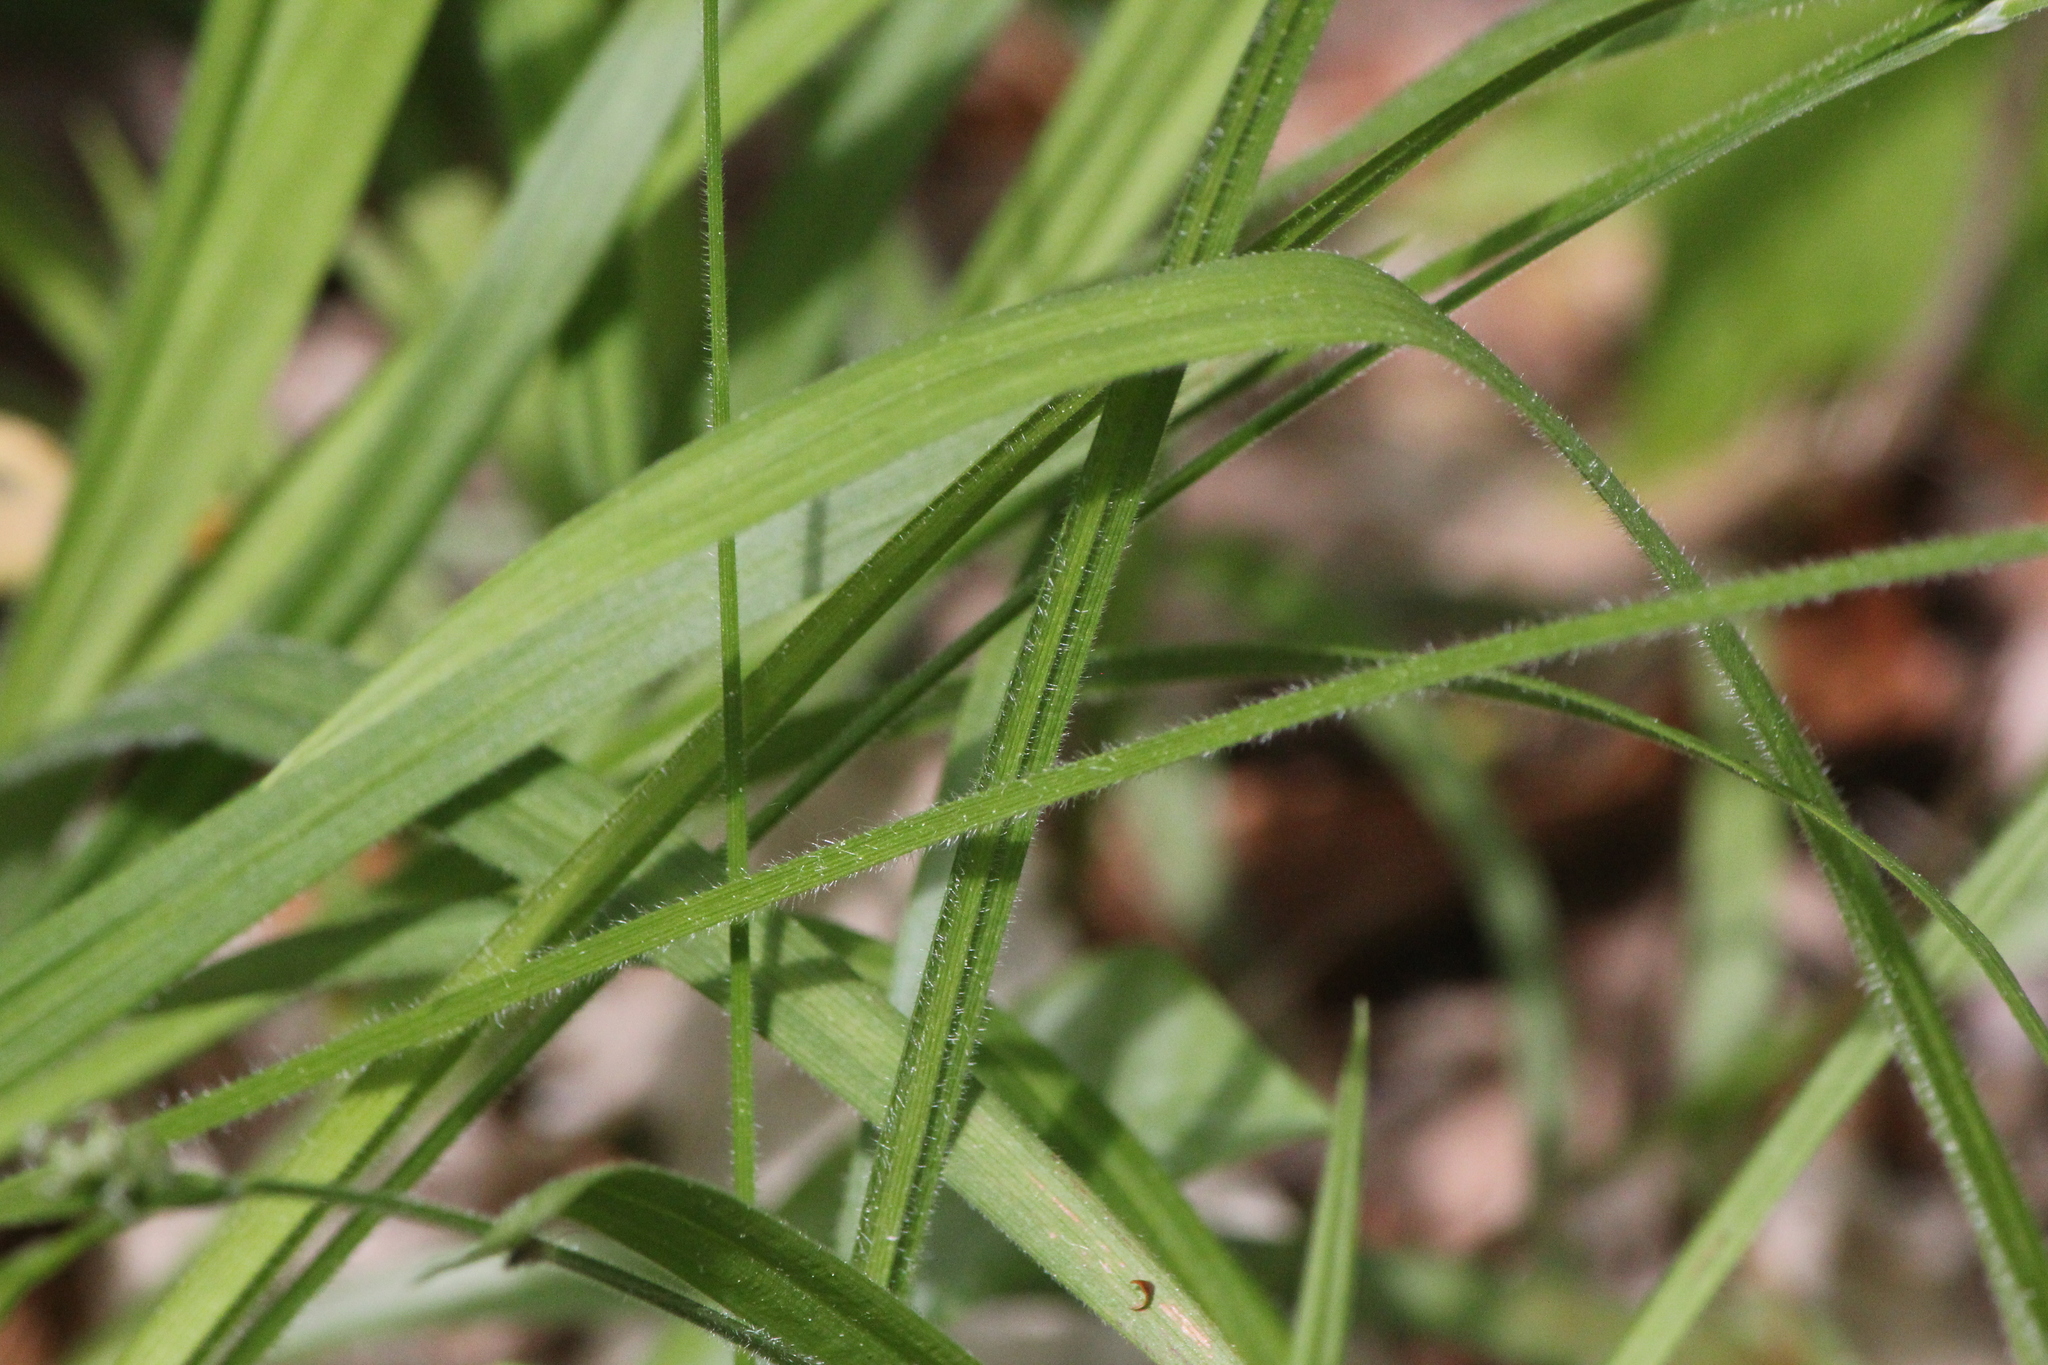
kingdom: Plantae
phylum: Tracheophyta
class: Liliopsida
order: Poales
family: Cyperaceae
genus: Carex
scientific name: Carex hirtifolia
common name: Hairy sedge
